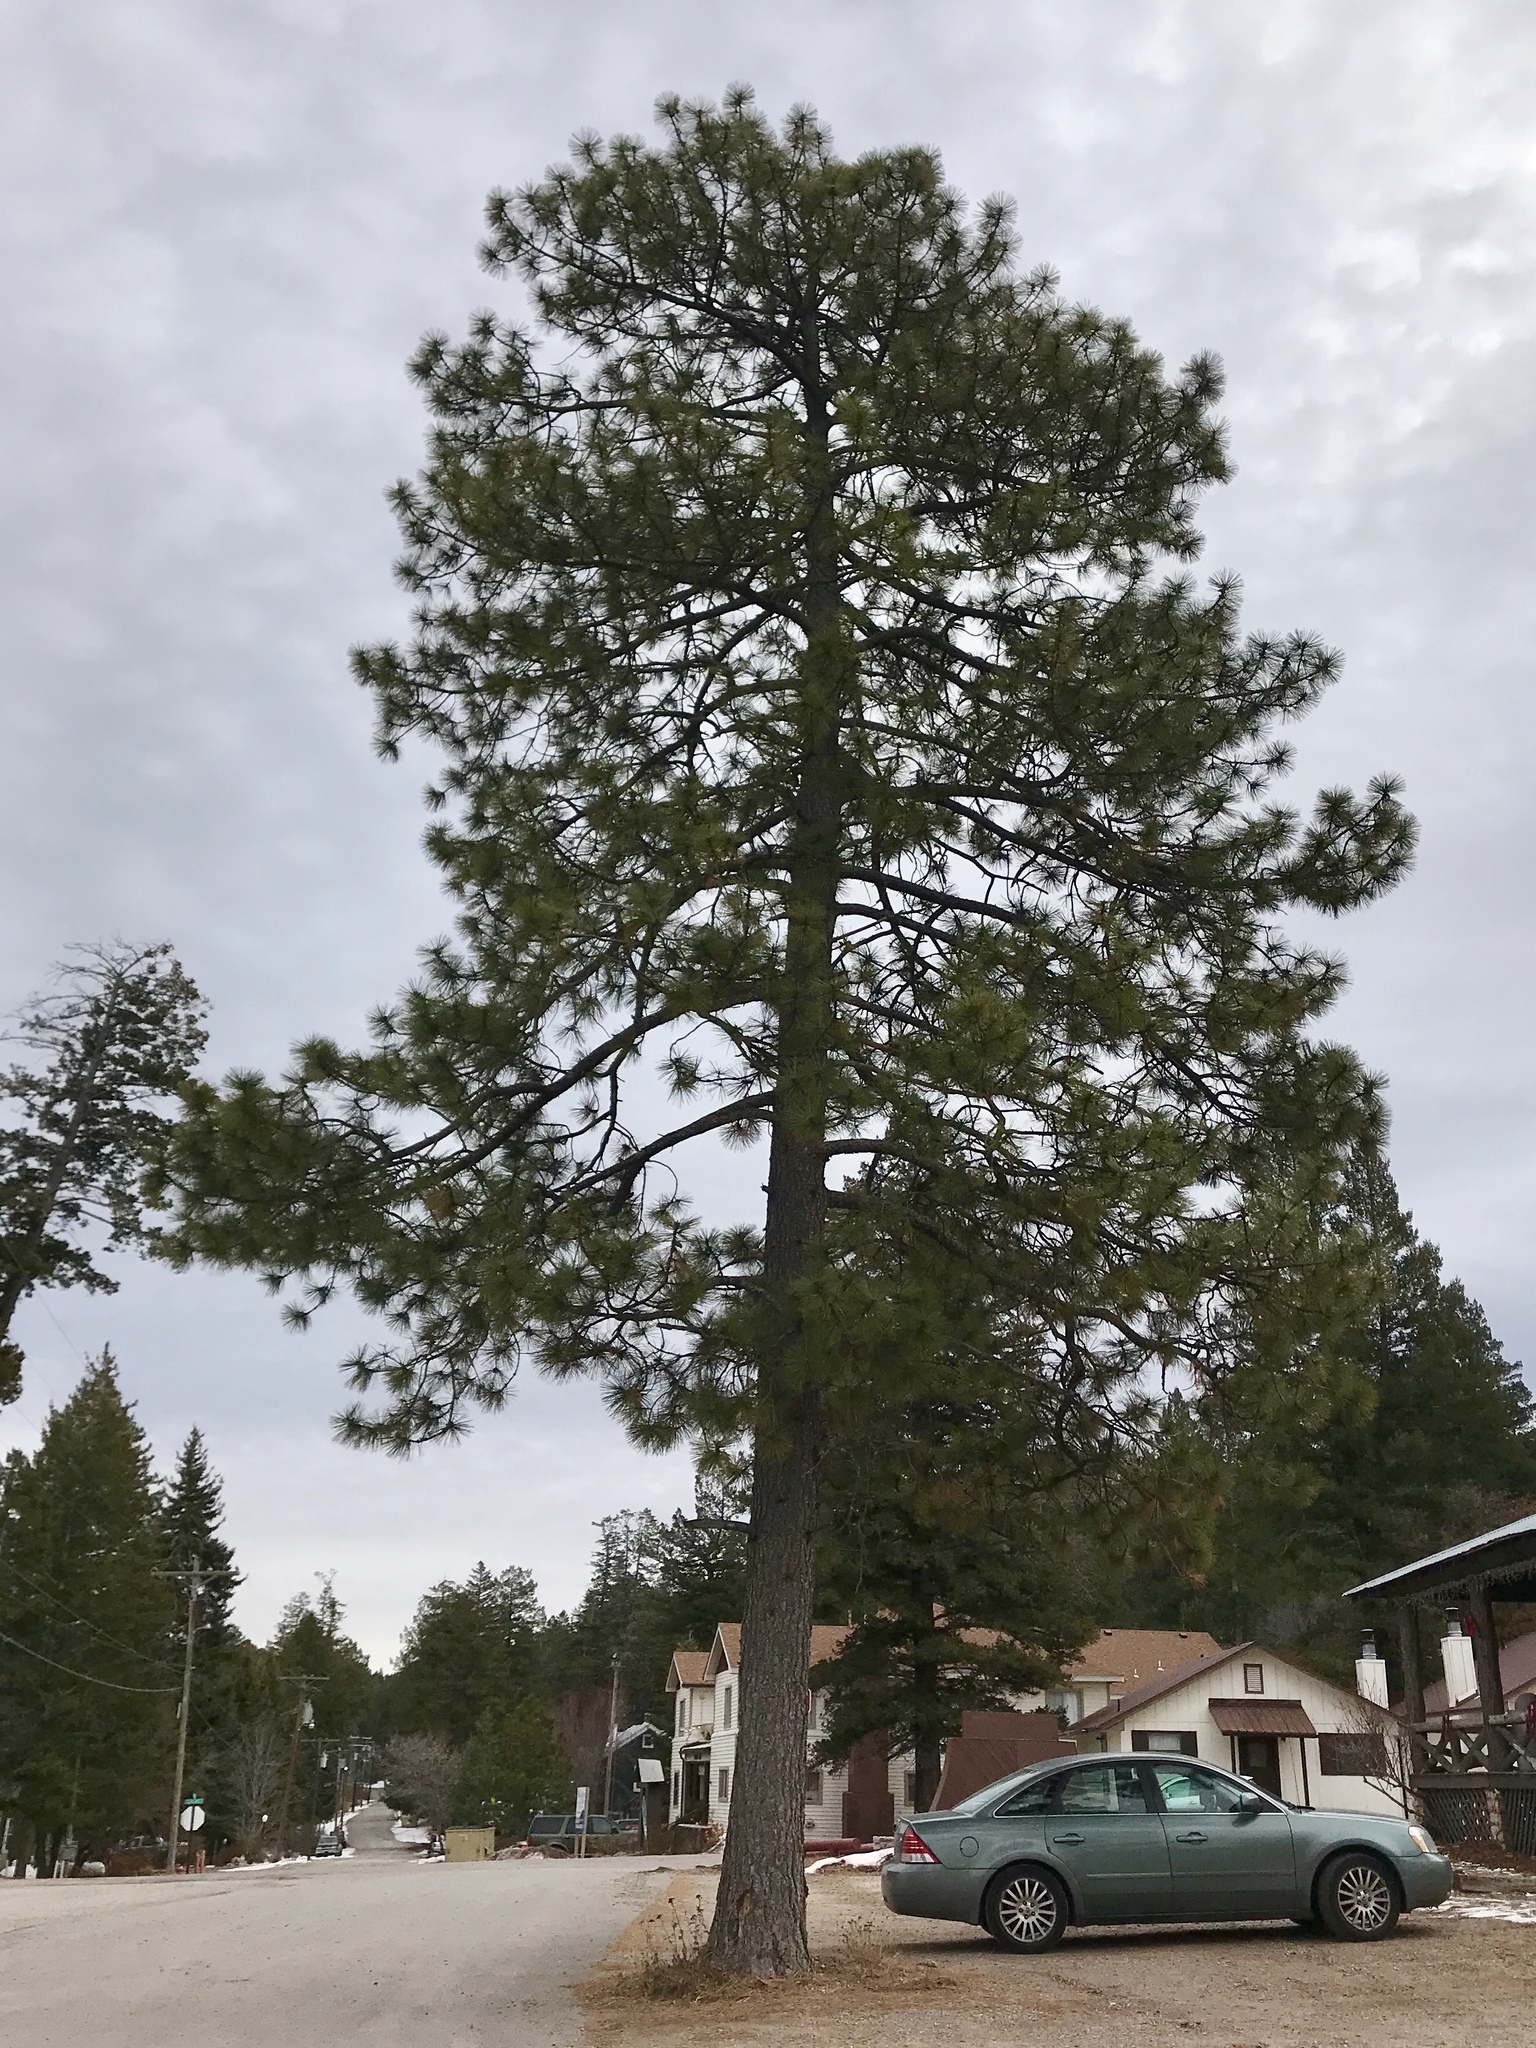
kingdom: Plantae
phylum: Tracheophyta
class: Pinopsida
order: Pinales
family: Pinaceae
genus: Pinus
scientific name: Pinus ponderosa
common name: Western yellow-pine
